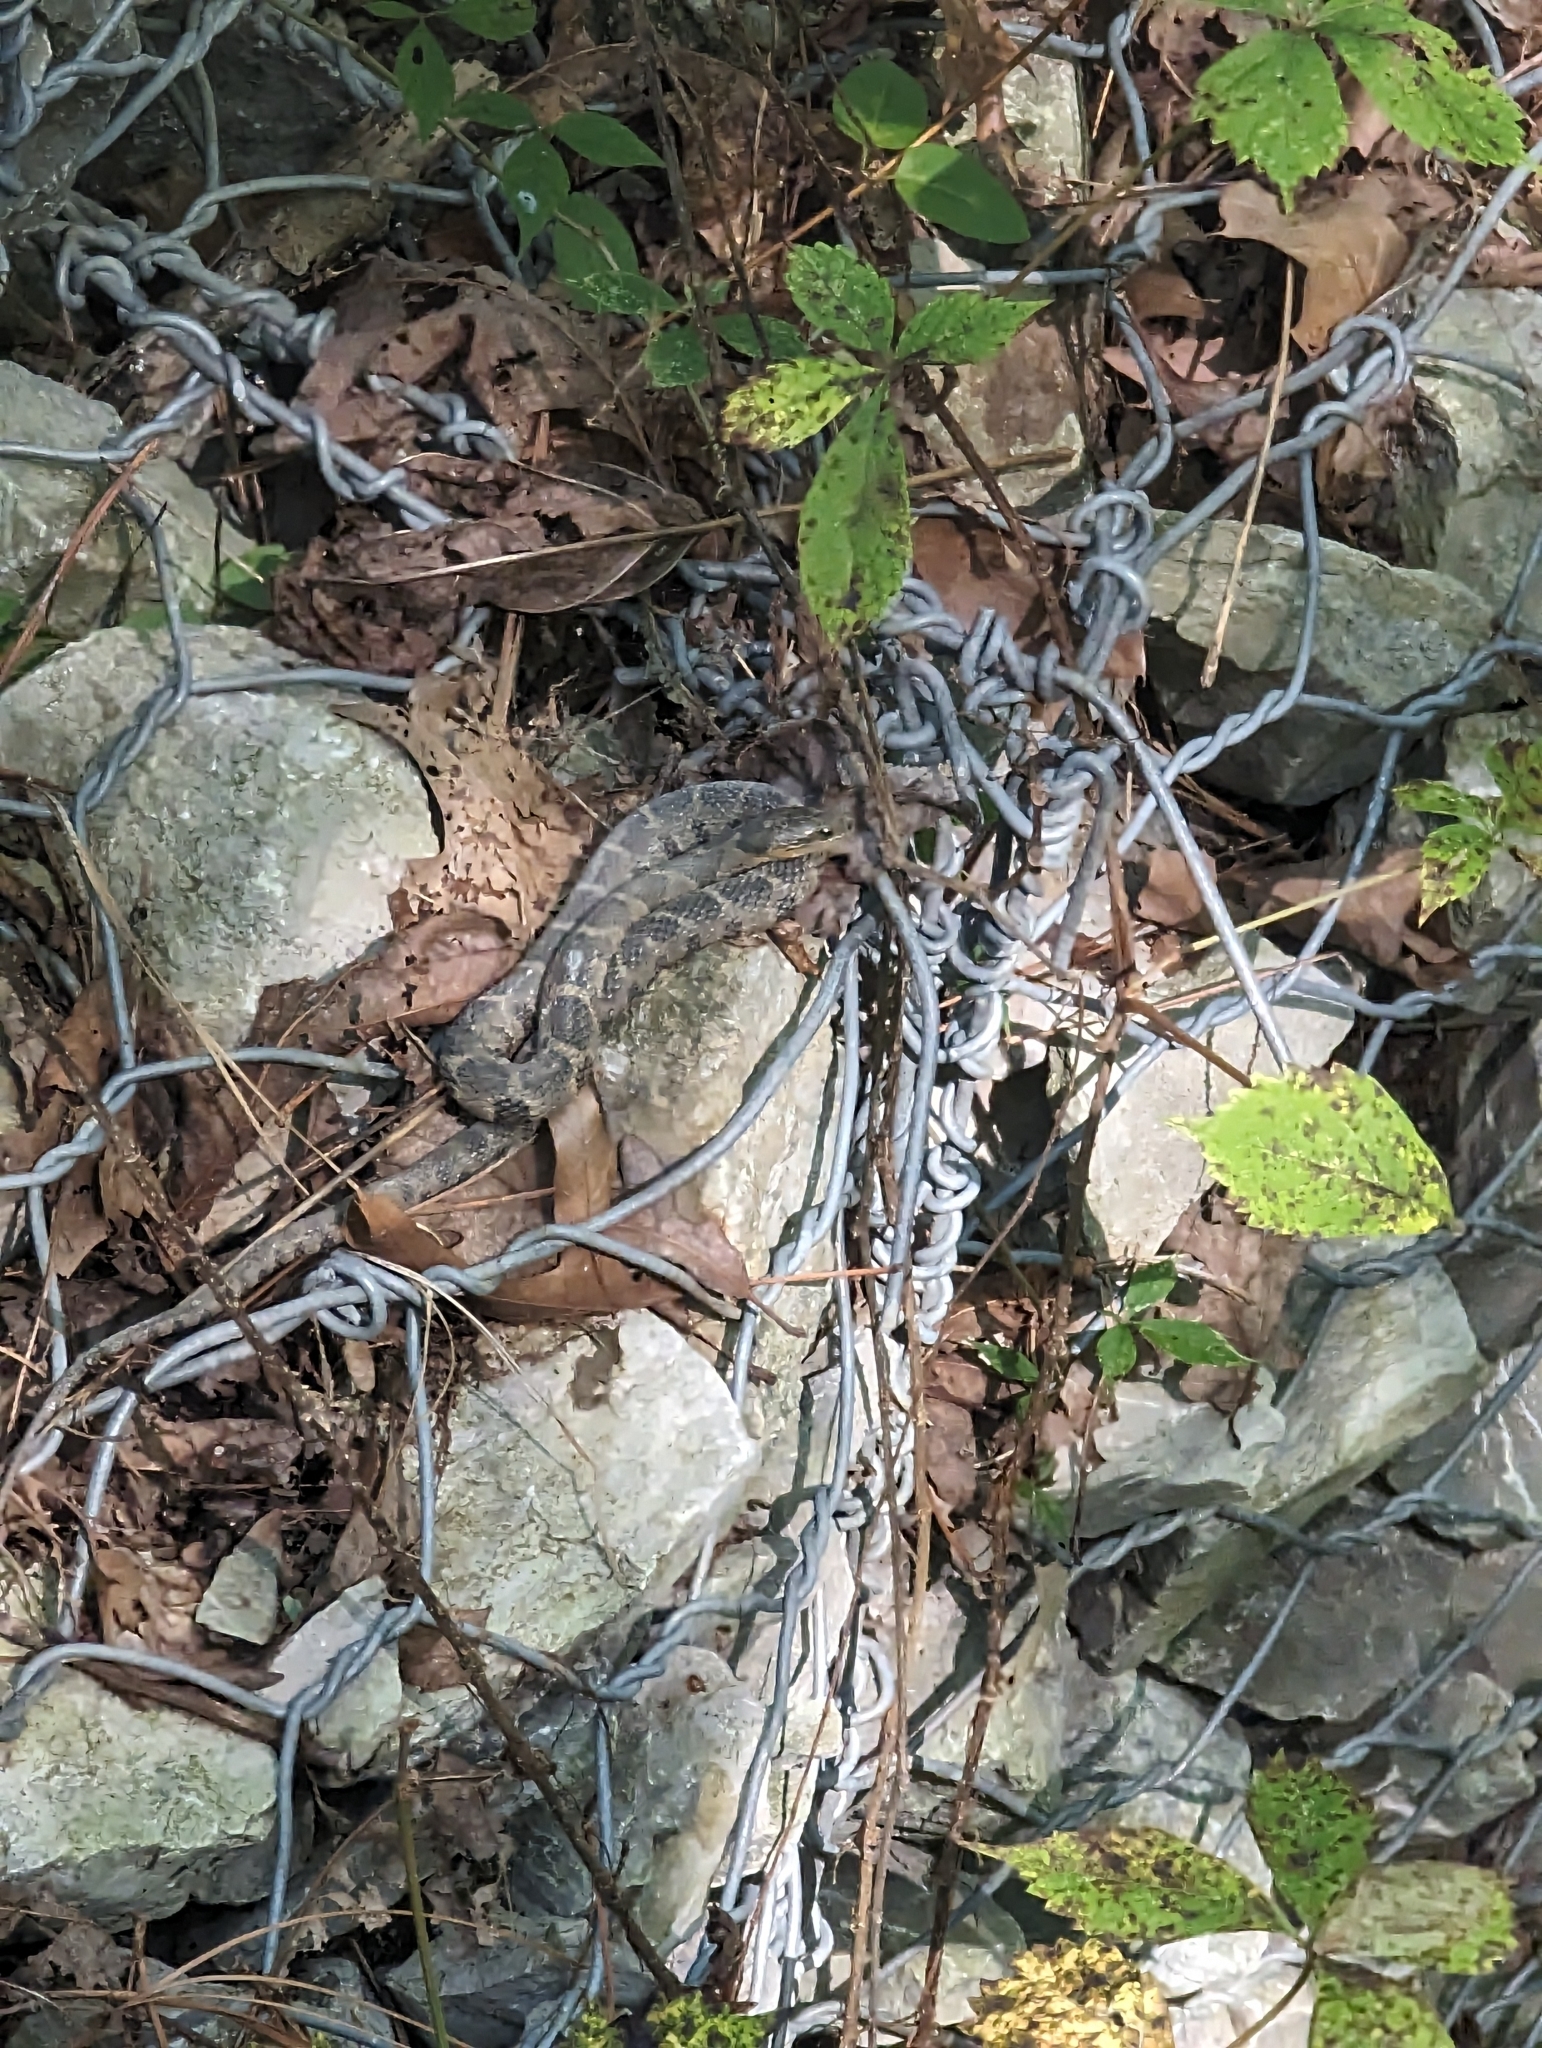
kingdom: Animalia
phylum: Chordata
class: Squamata
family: Colubridae
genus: Nerodia
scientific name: Nerodia sipedon
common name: Northern water snake
